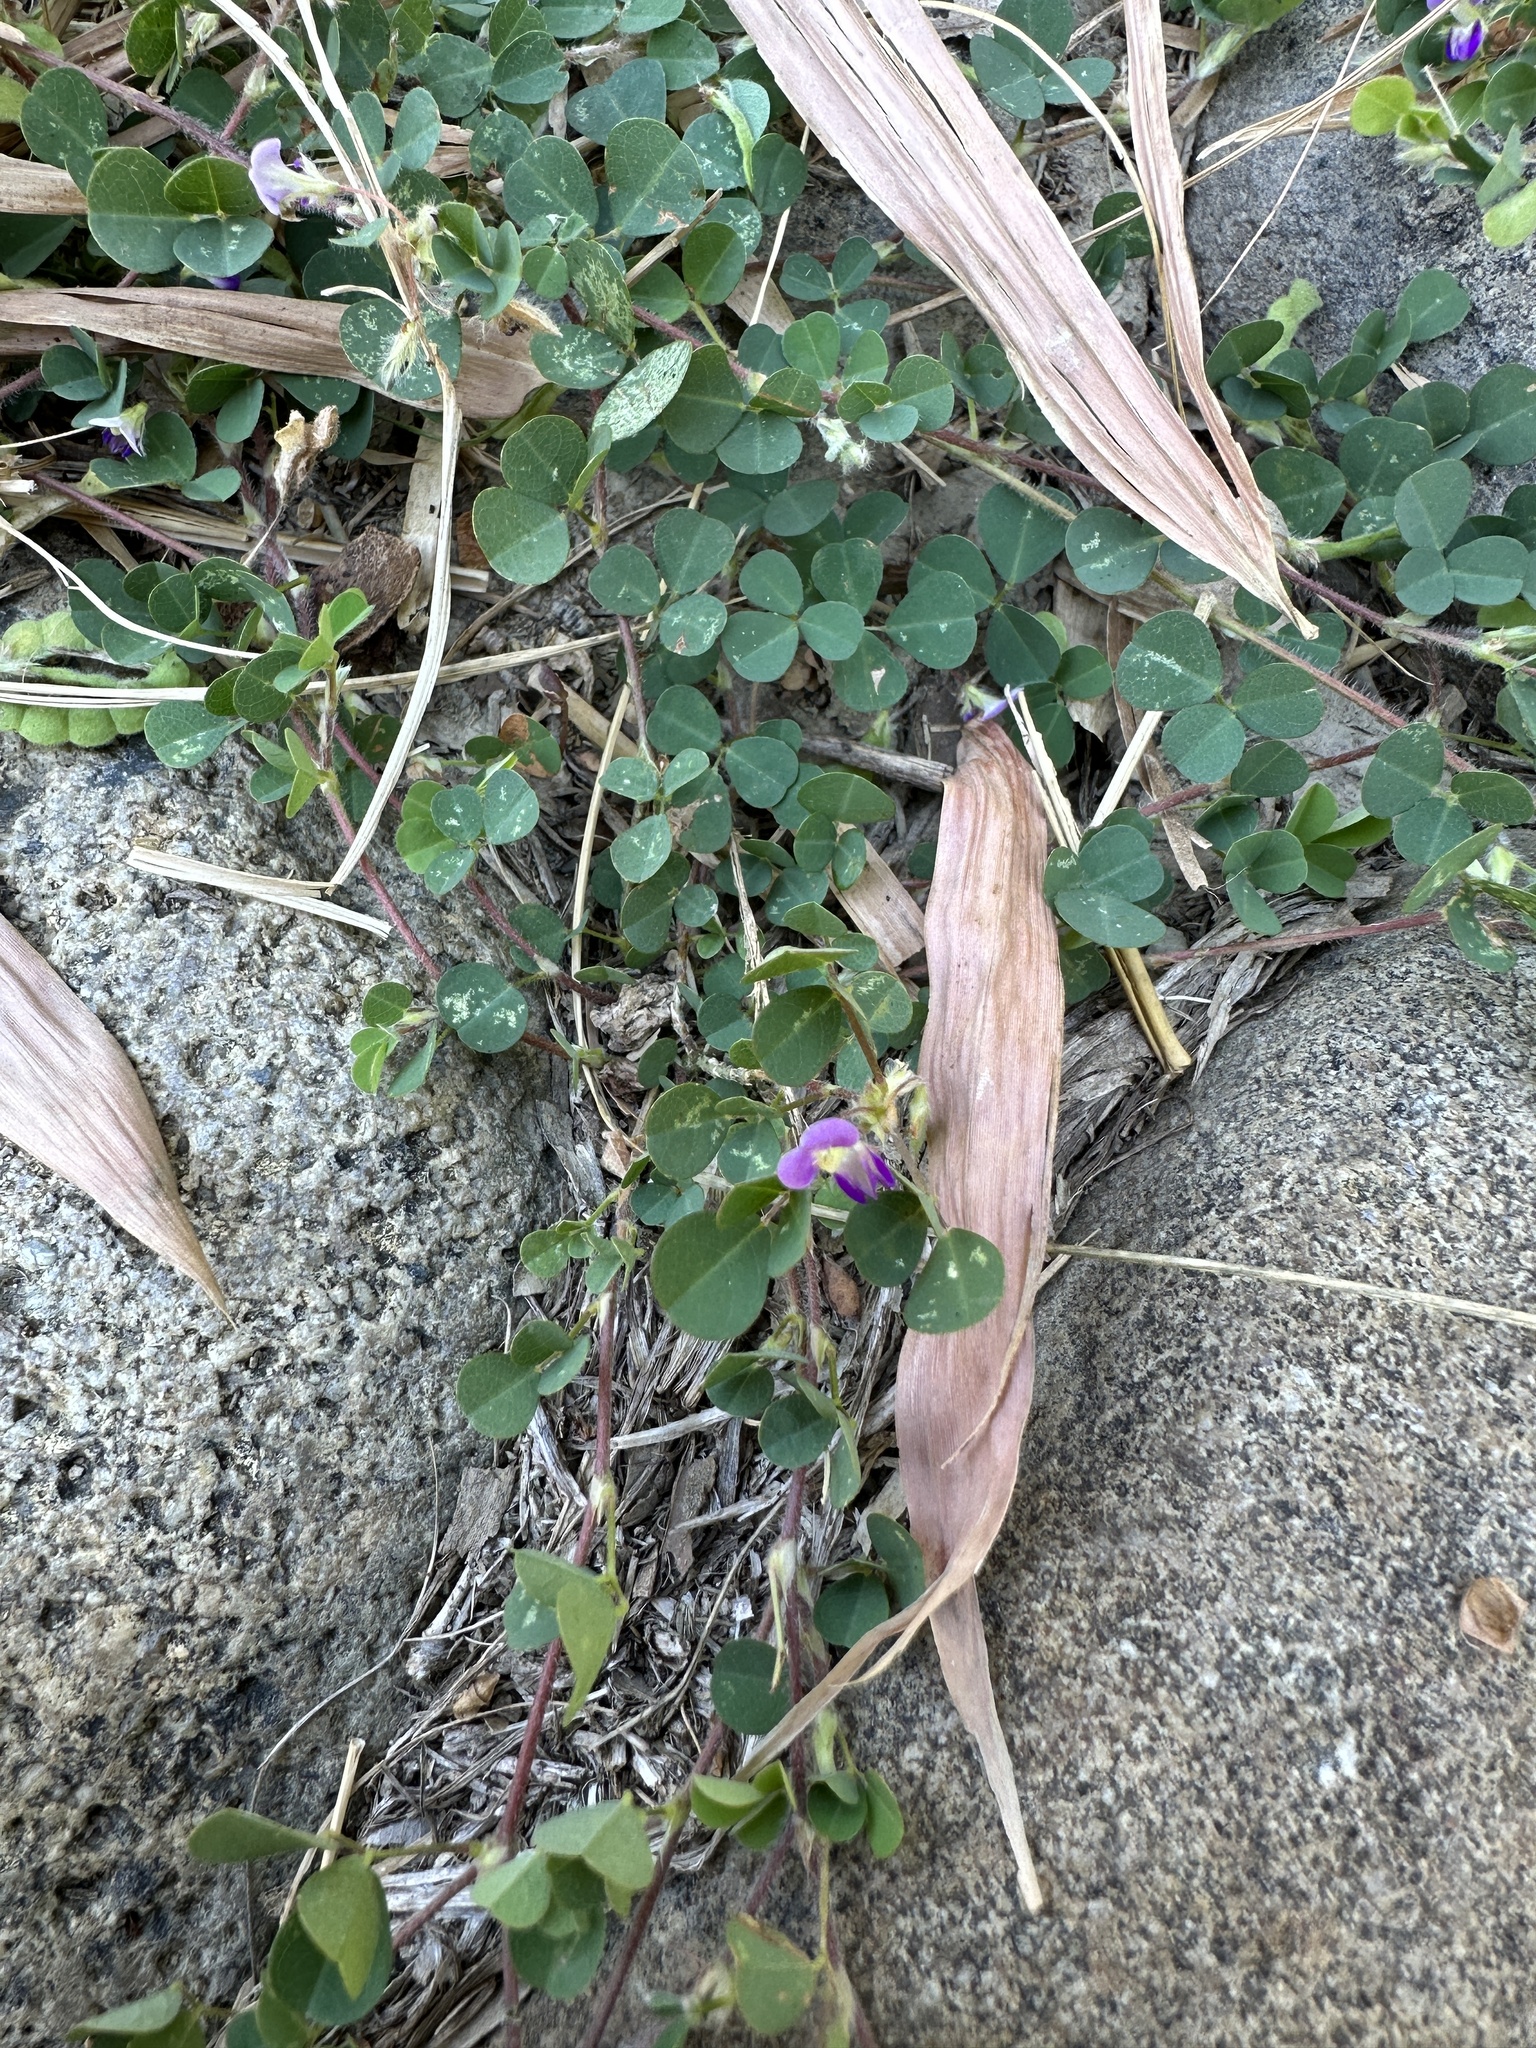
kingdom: Plantae
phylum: Tracheophyta
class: Magnoliopsida
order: Fabales
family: Fabaceae
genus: Grona
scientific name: Grona triflora
